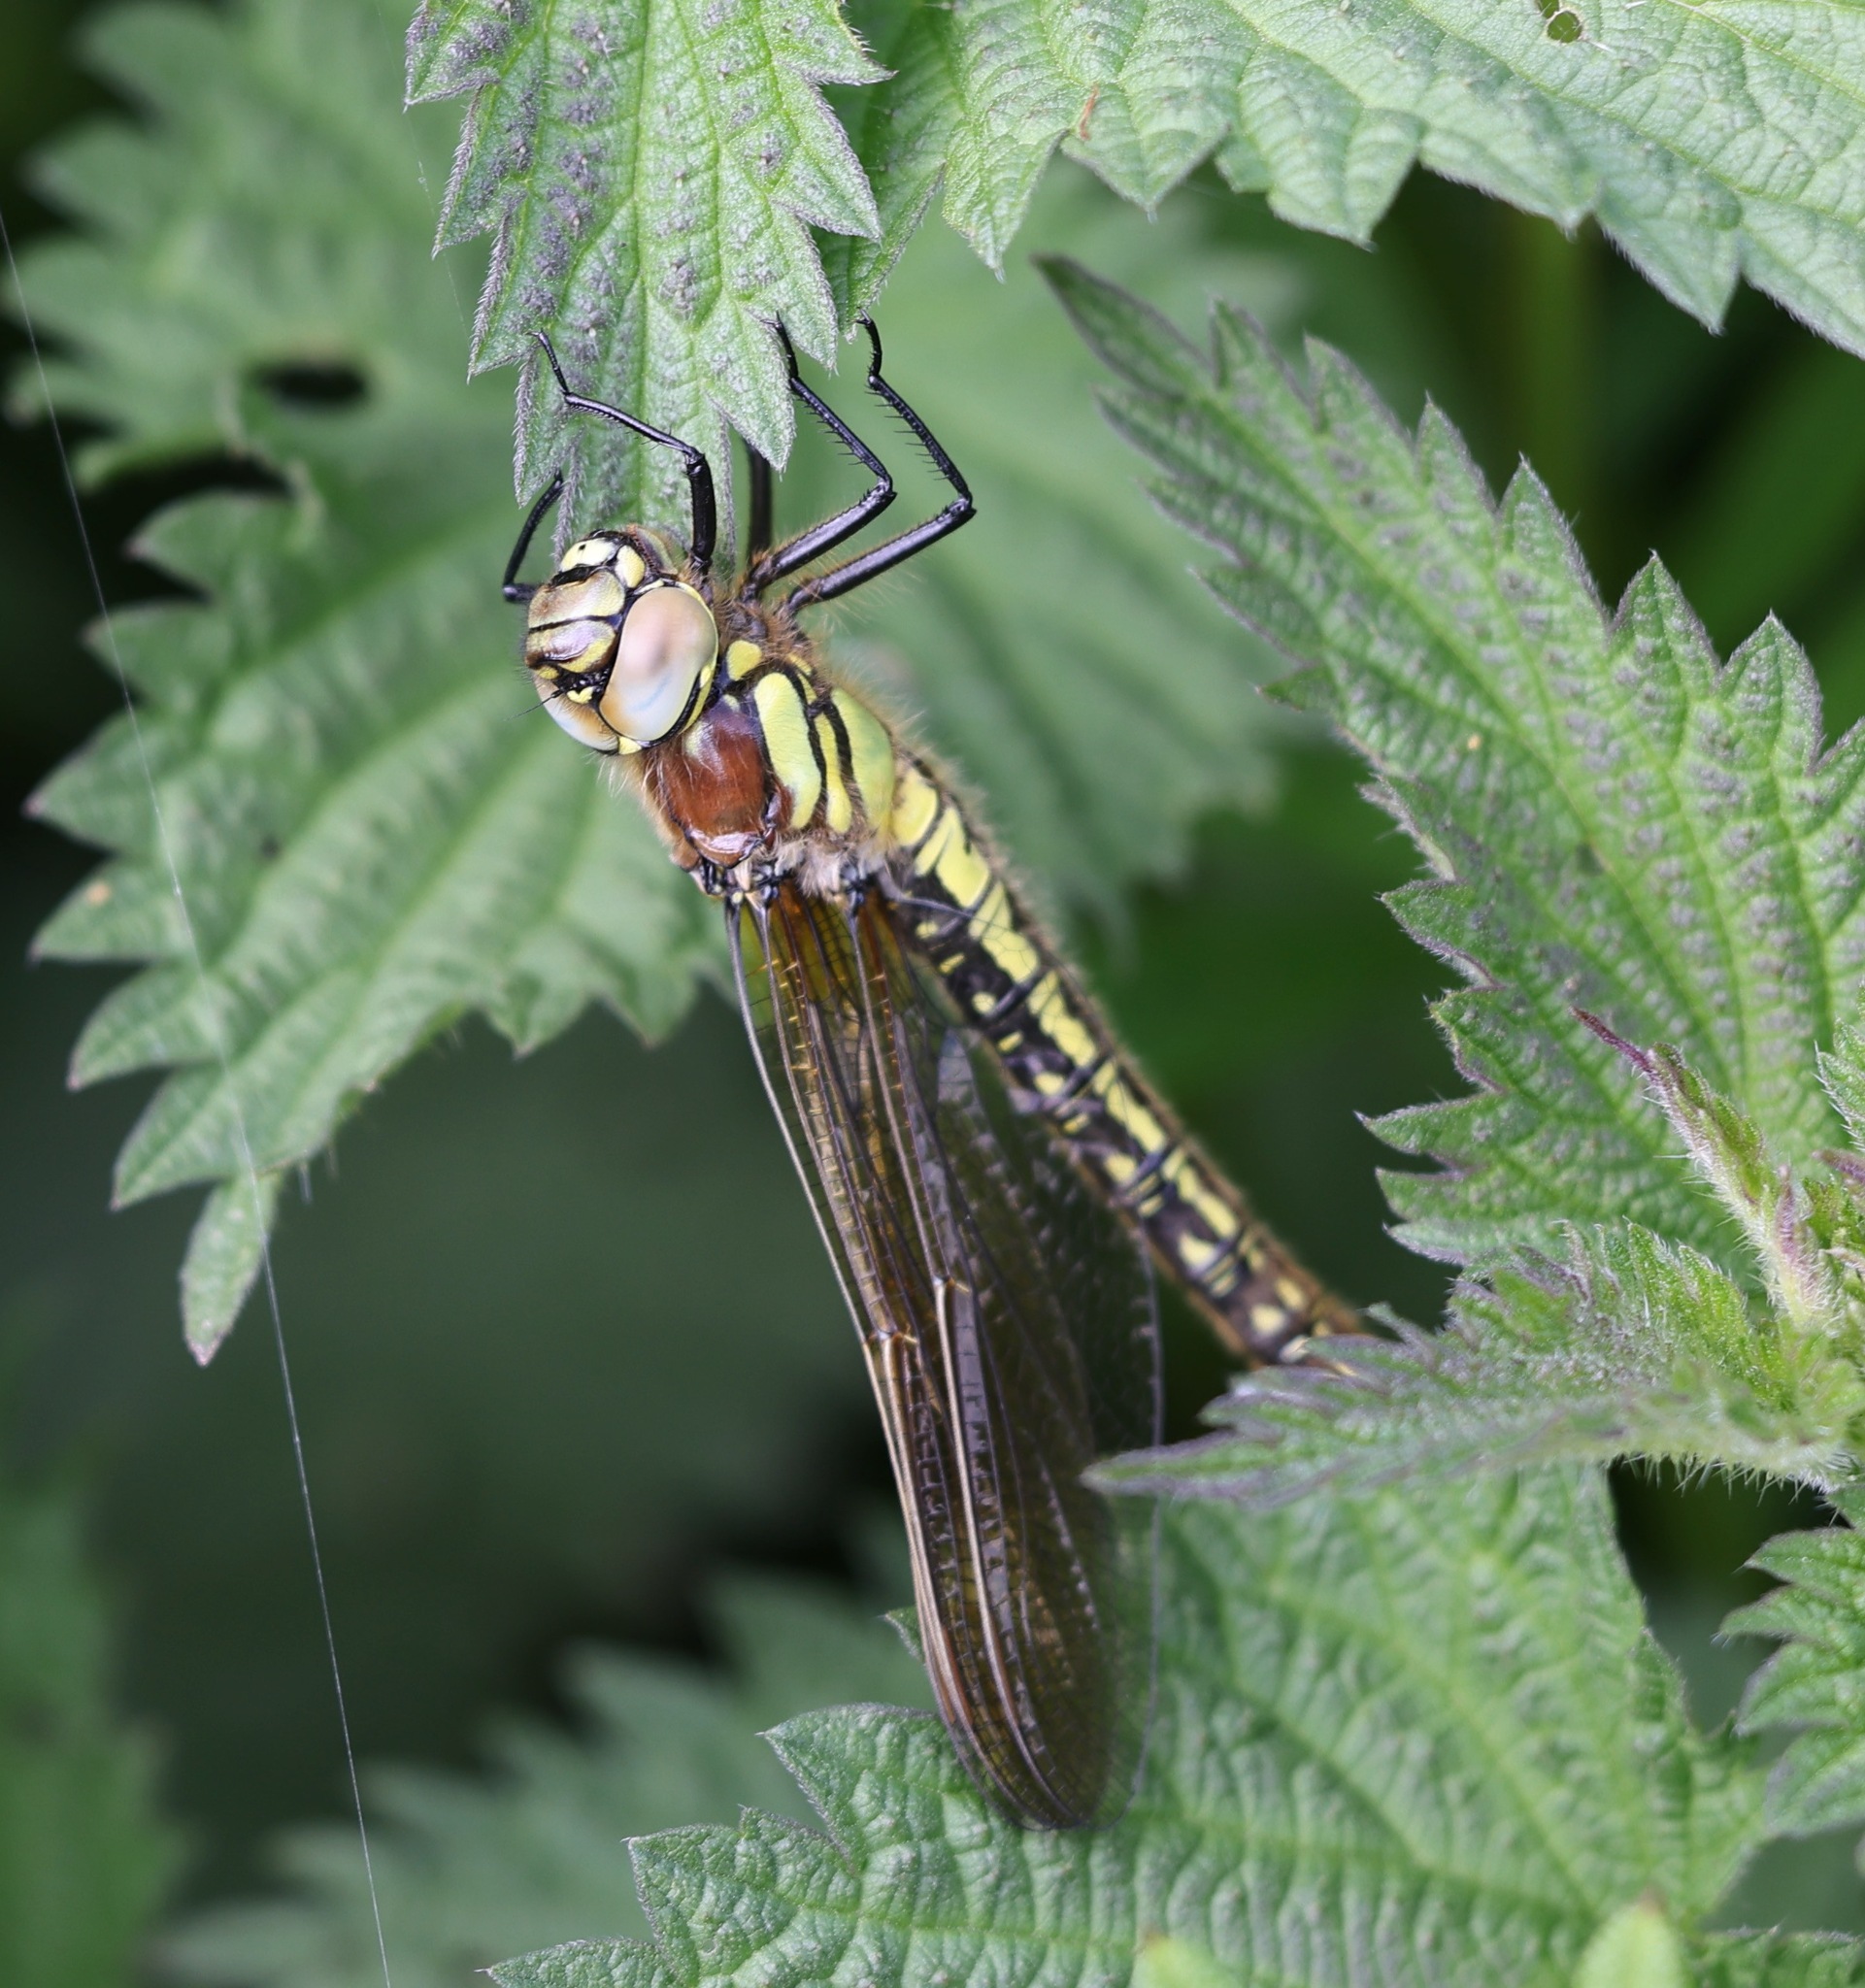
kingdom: Animalia
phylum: Arthropoda
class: Insecta
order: Odonata
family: Aeshnidae
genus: Brachytron
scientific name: Brachytron pratense
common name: Hairy hawker
